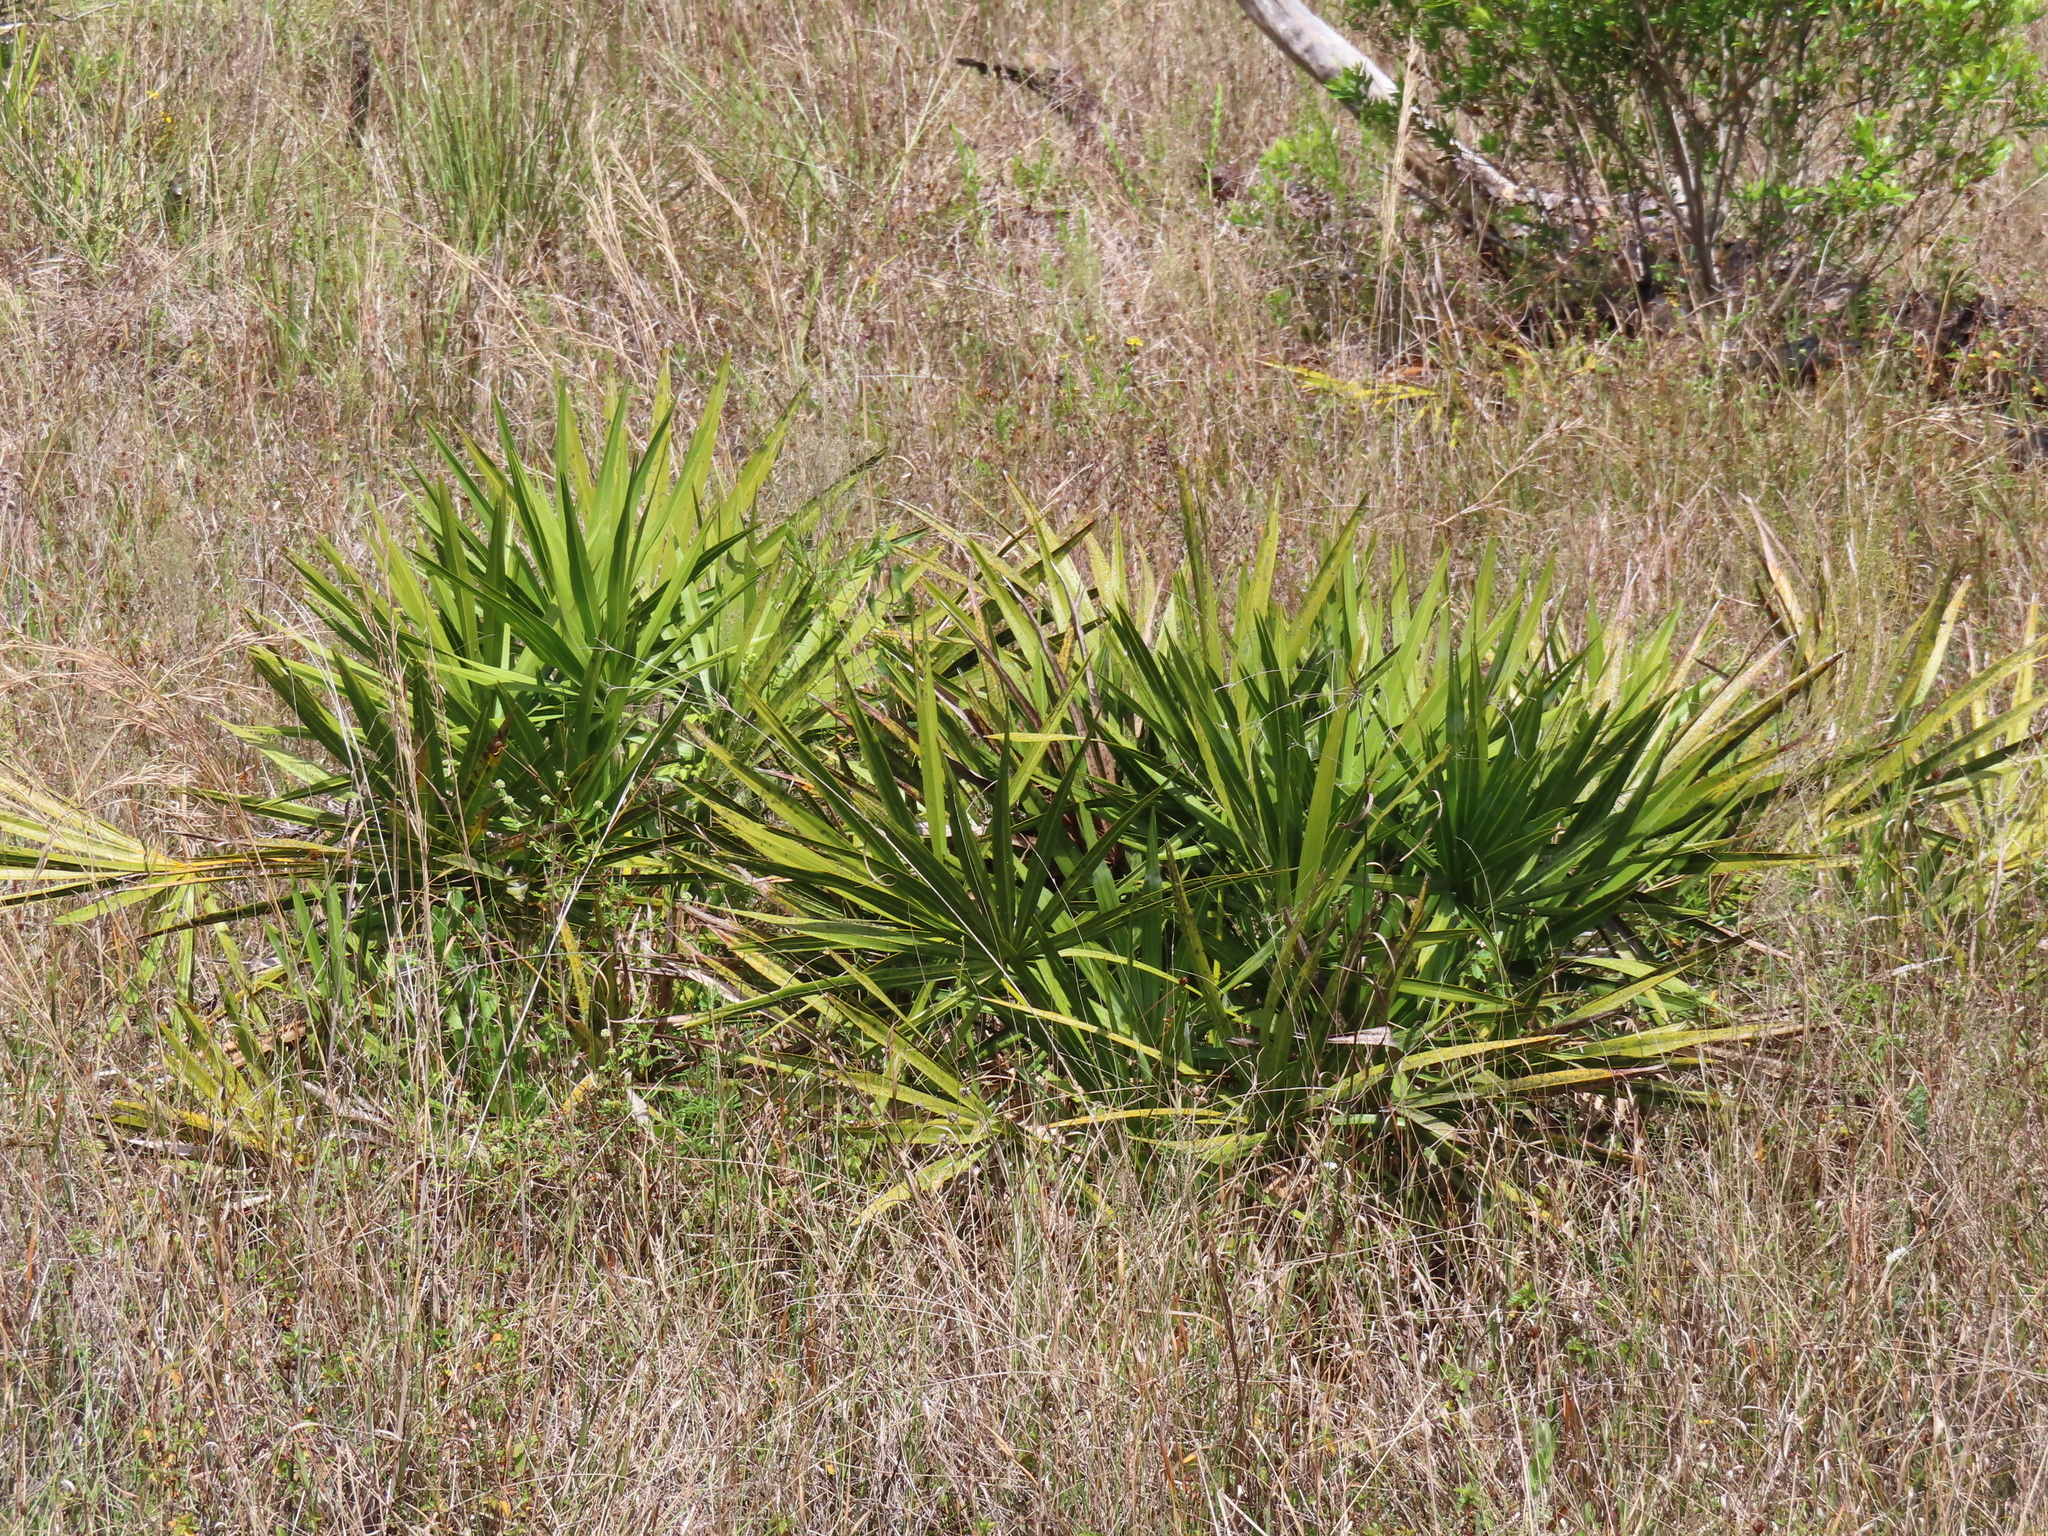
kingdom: Plantae
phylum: Tracheophyta
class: Liliopsida
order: Arecales
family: Arecaceae
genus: Serenoa
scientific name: Serenoa repens
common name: Saw-palmetto
